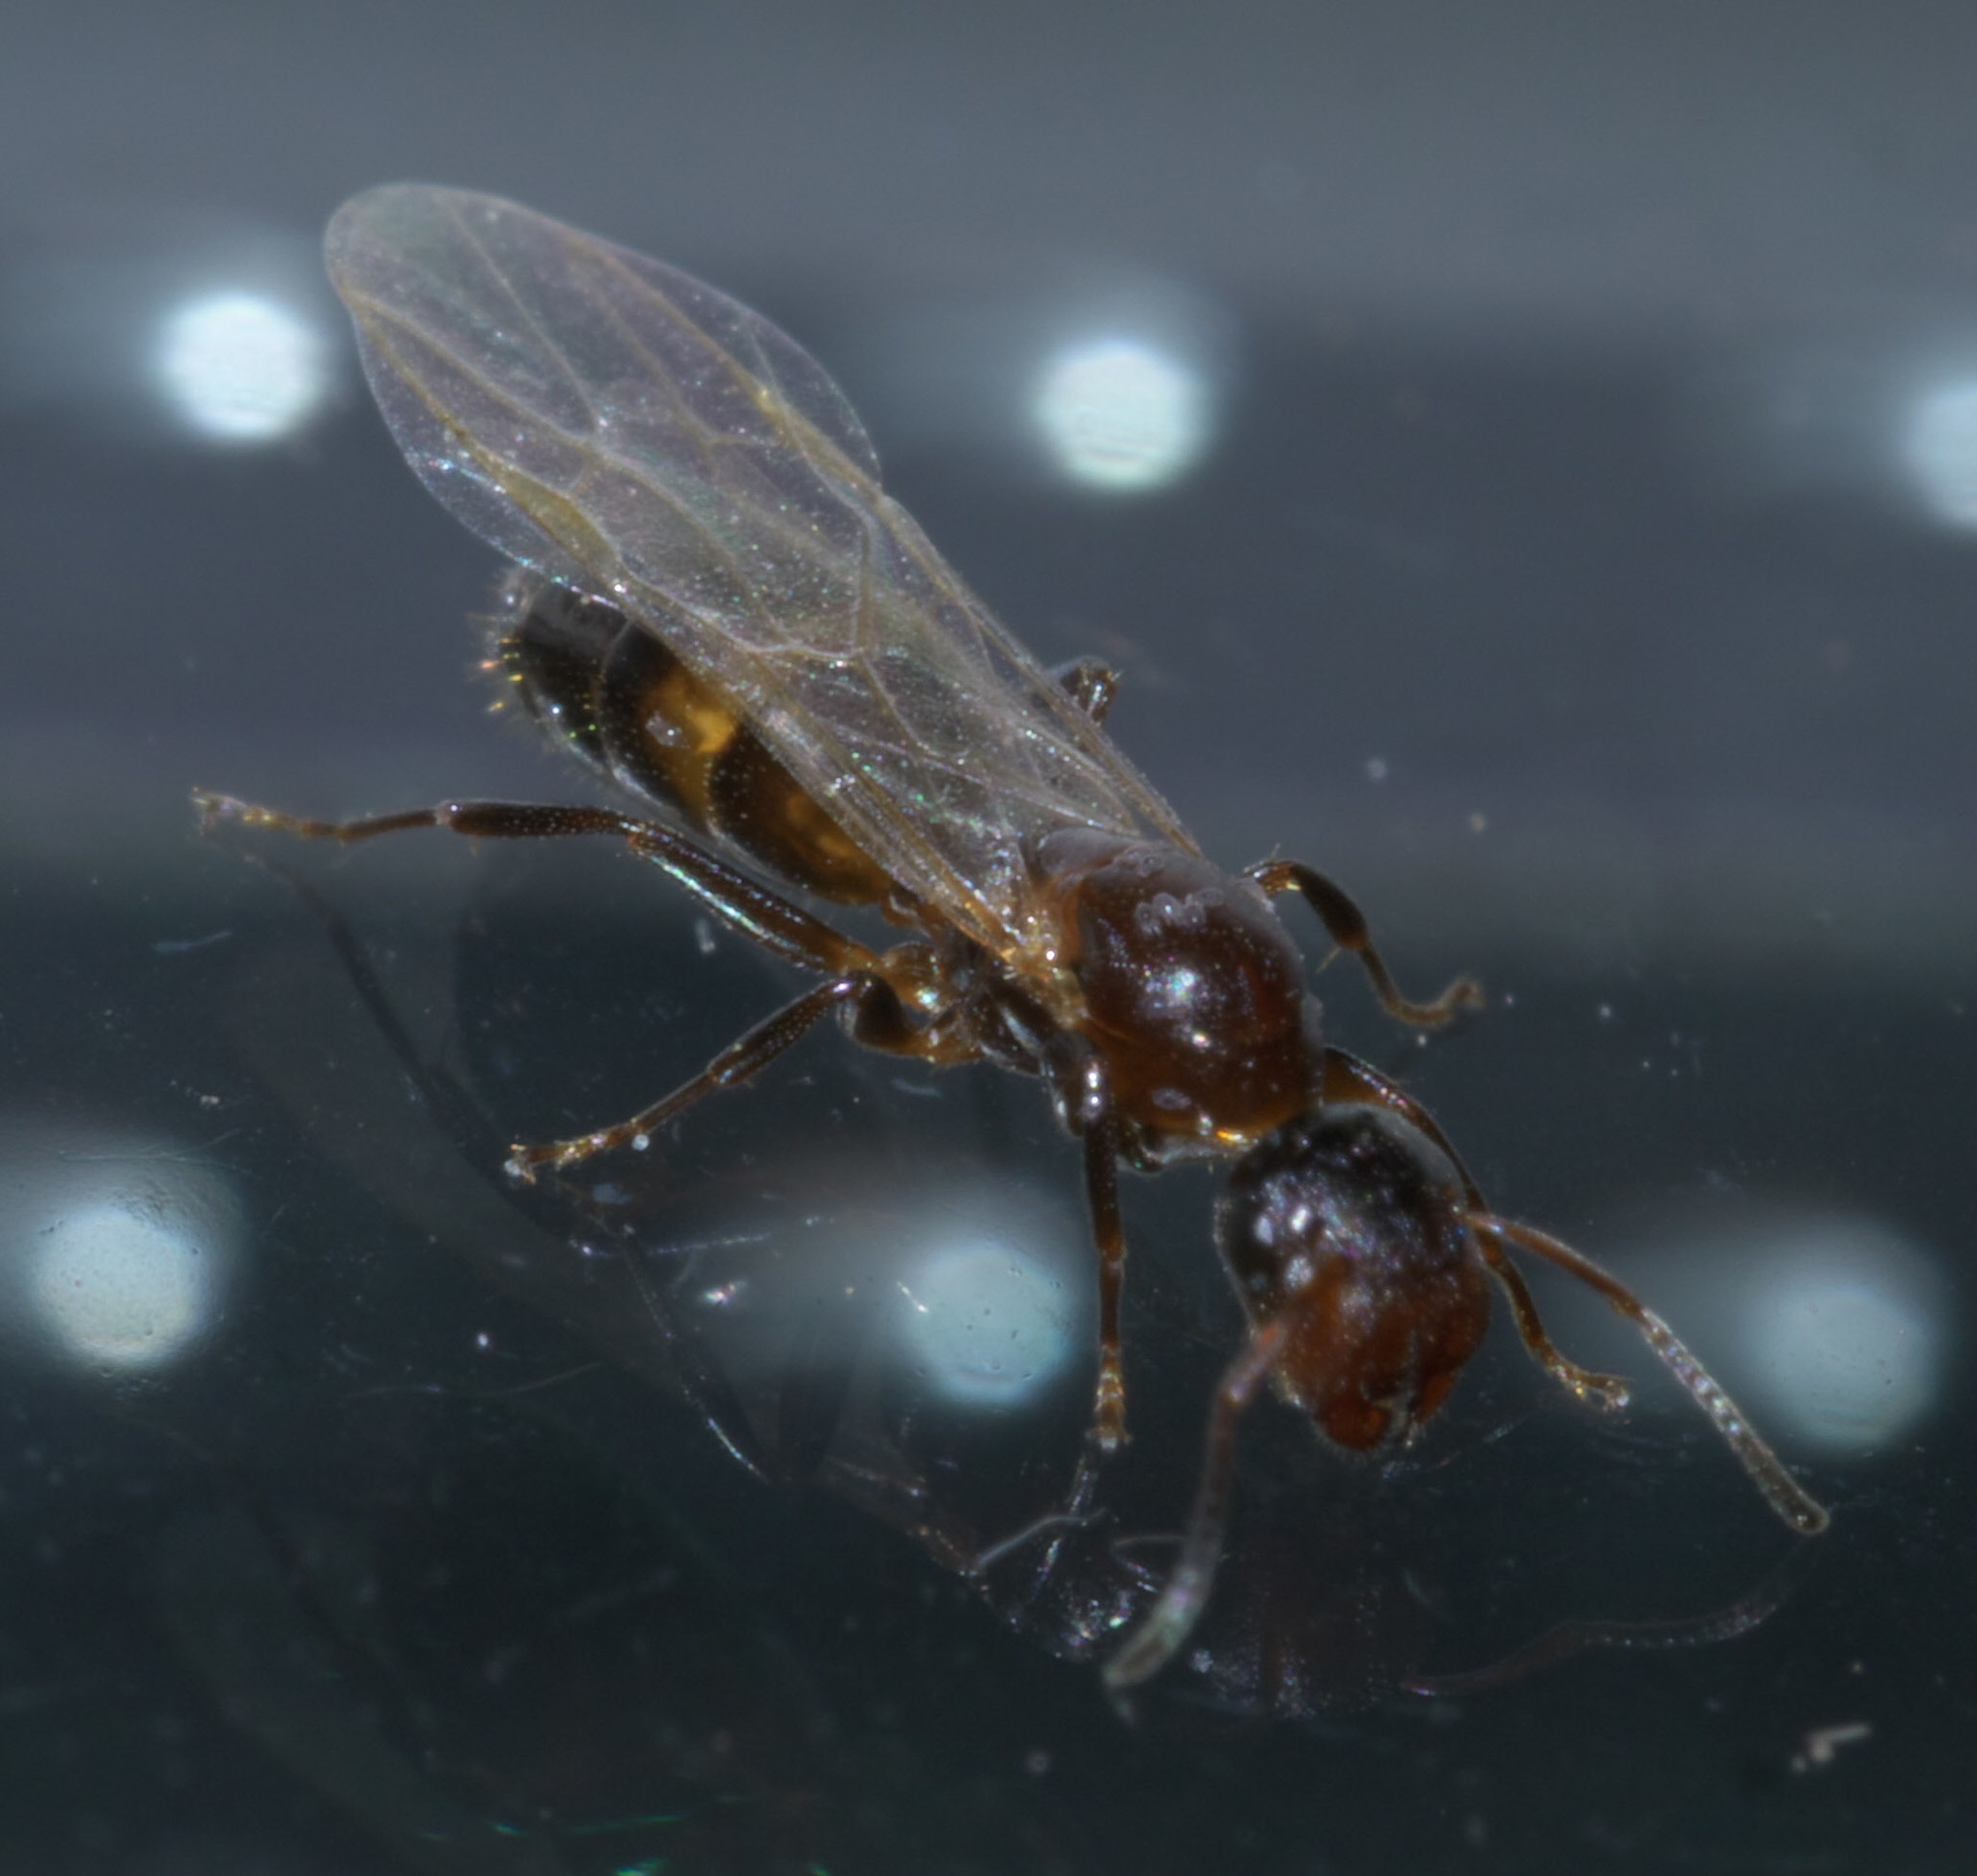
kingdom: Animalia
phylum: Arthropoda
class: Insecta
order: Hymenoptera
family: Formicidae
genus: Colobopsis
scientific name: Colobopsis impressa
